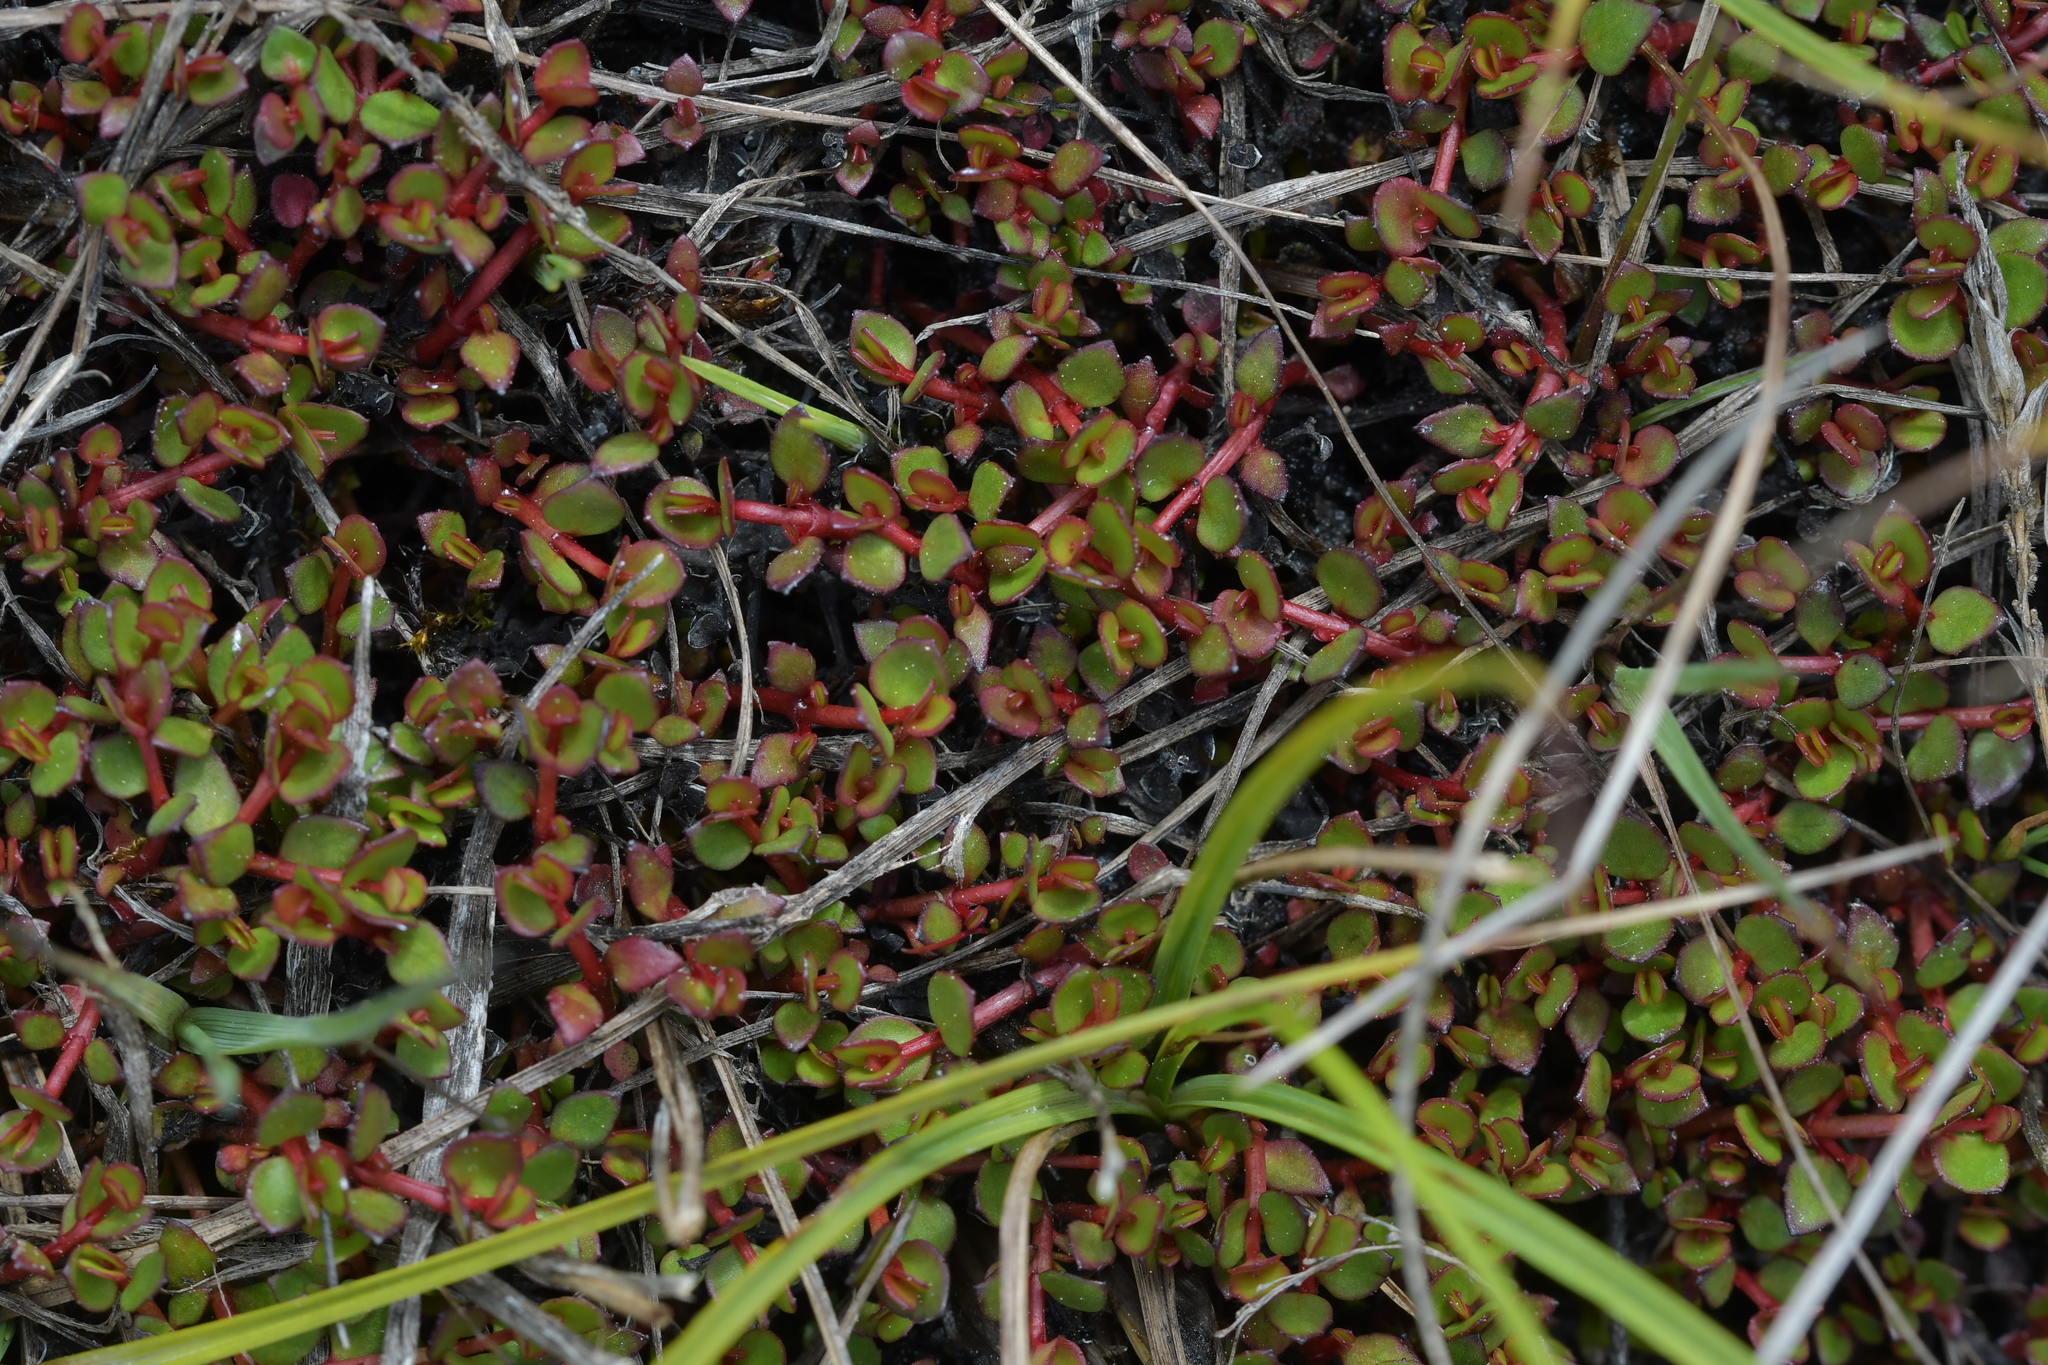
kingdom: Plantae
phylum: Tracheophyta
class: Magnoliopsida
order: Saxifragales
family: Haloragaceae
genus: Gonocarpus
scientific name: Gonocarpus micranthus
